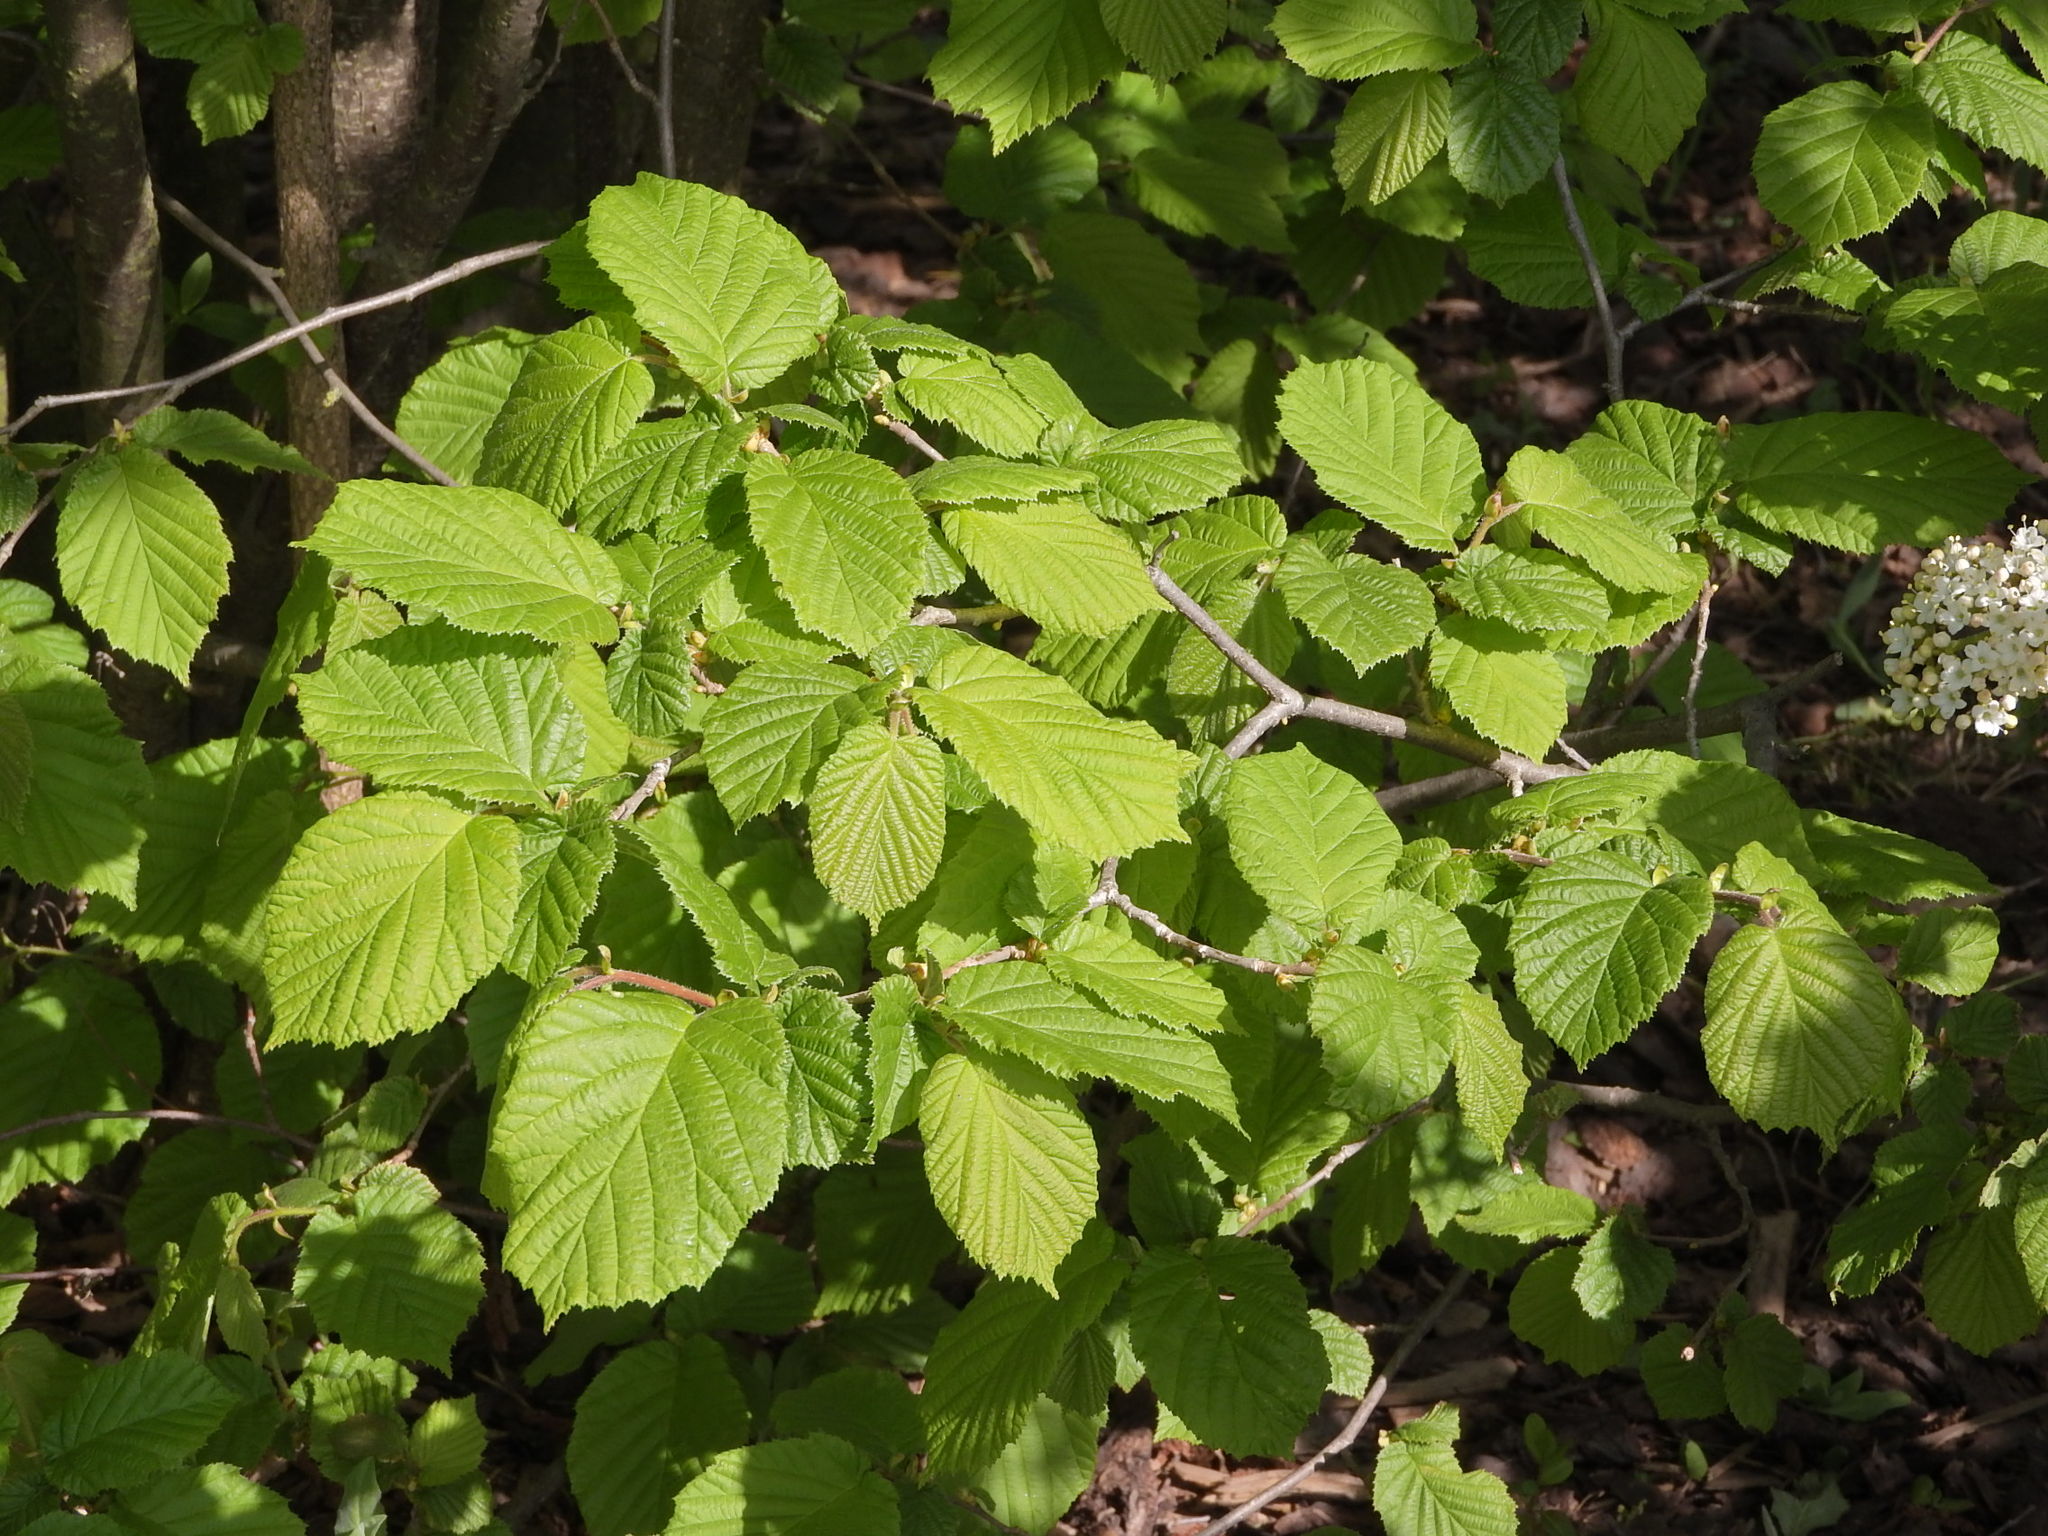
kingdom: Plantae
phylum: Tracheophyta
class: Magnoliopsida
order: Fagales
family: Betulaceae
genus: Corylus
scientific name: Corylus avellana
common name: European hazel
